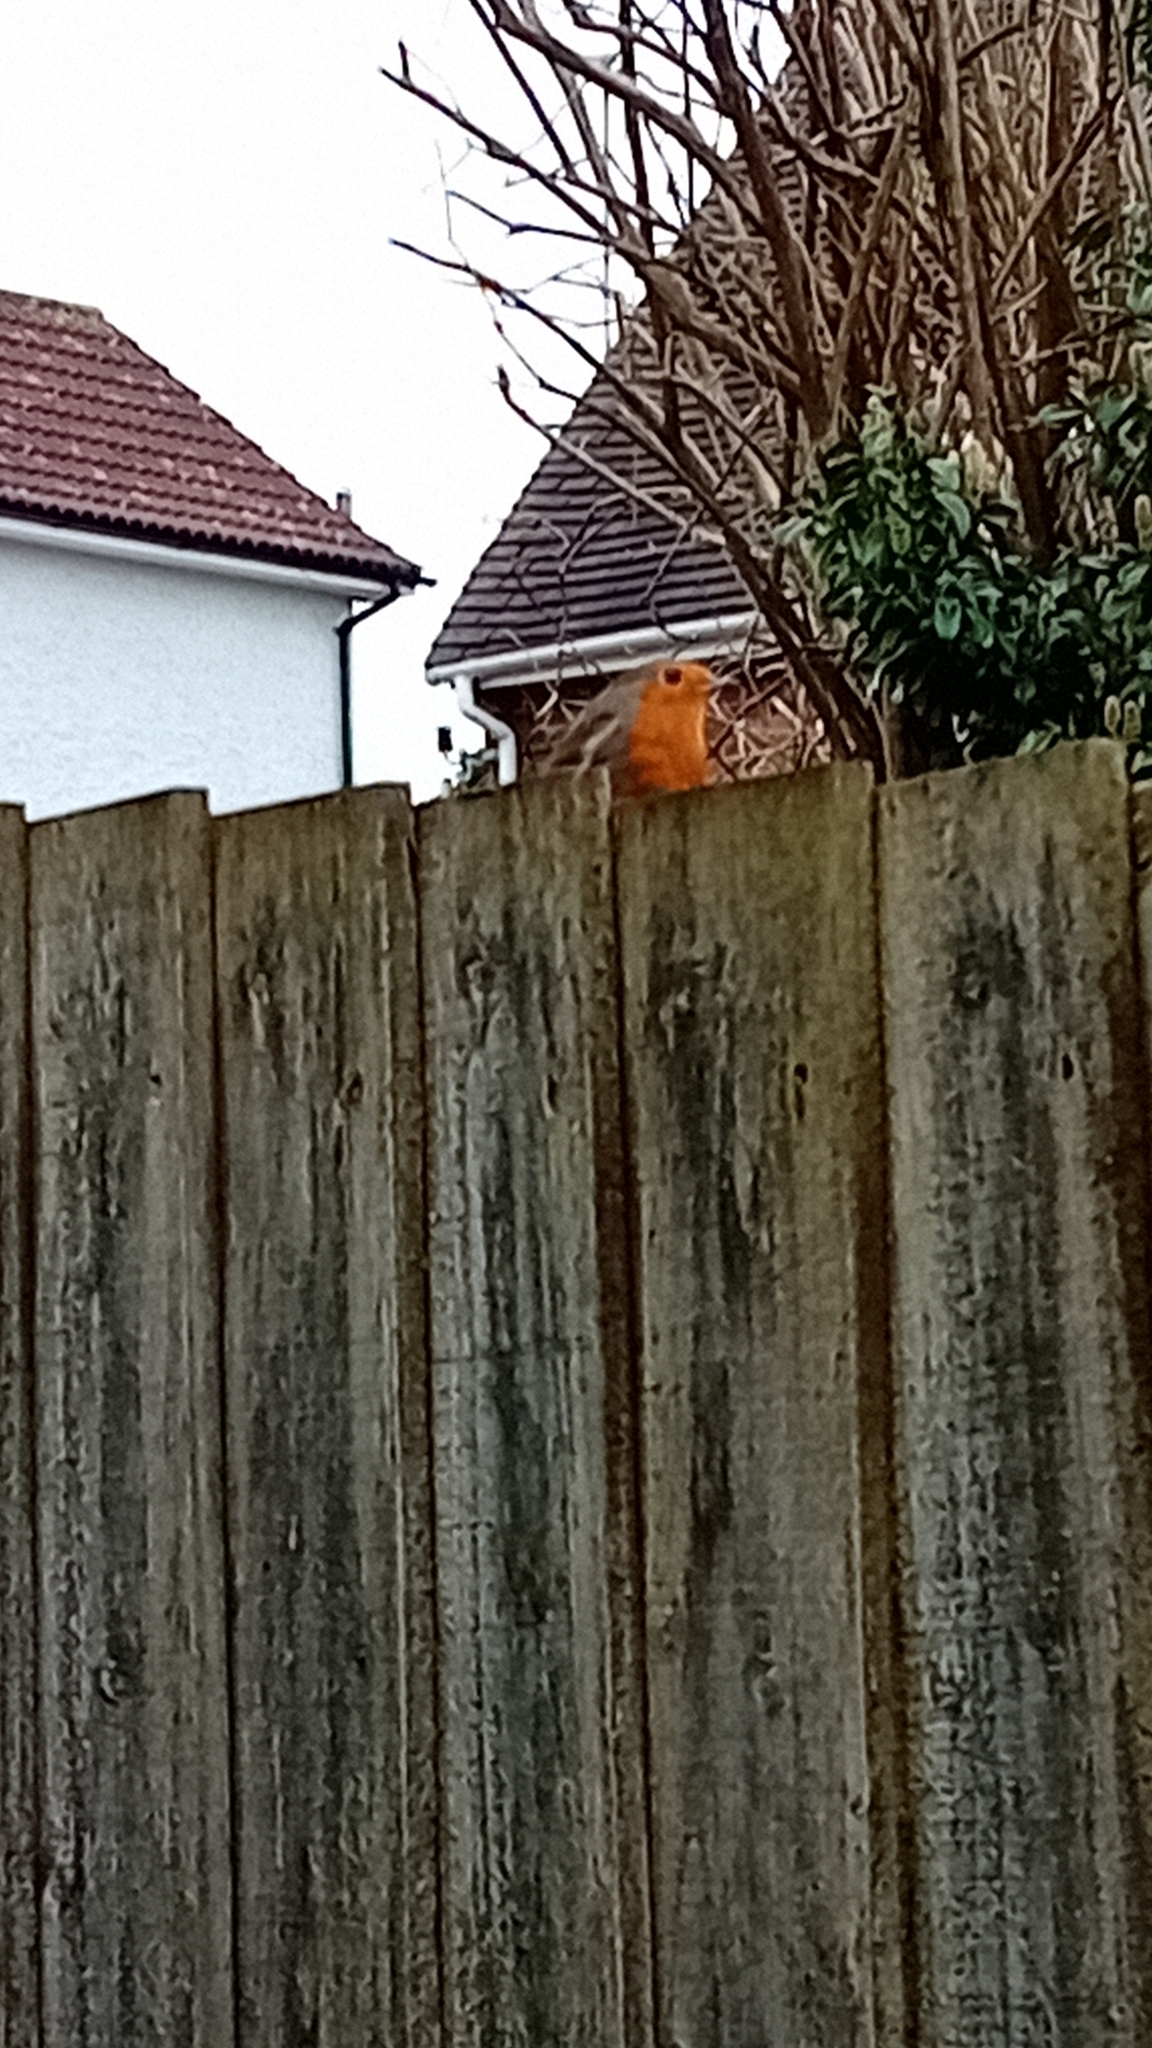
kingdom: Animalia
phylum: Chordata
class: Aves
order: Passeriformes
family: Muscicapidae
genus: Erithacus
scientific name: Erithacus rubecula
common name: European robin
